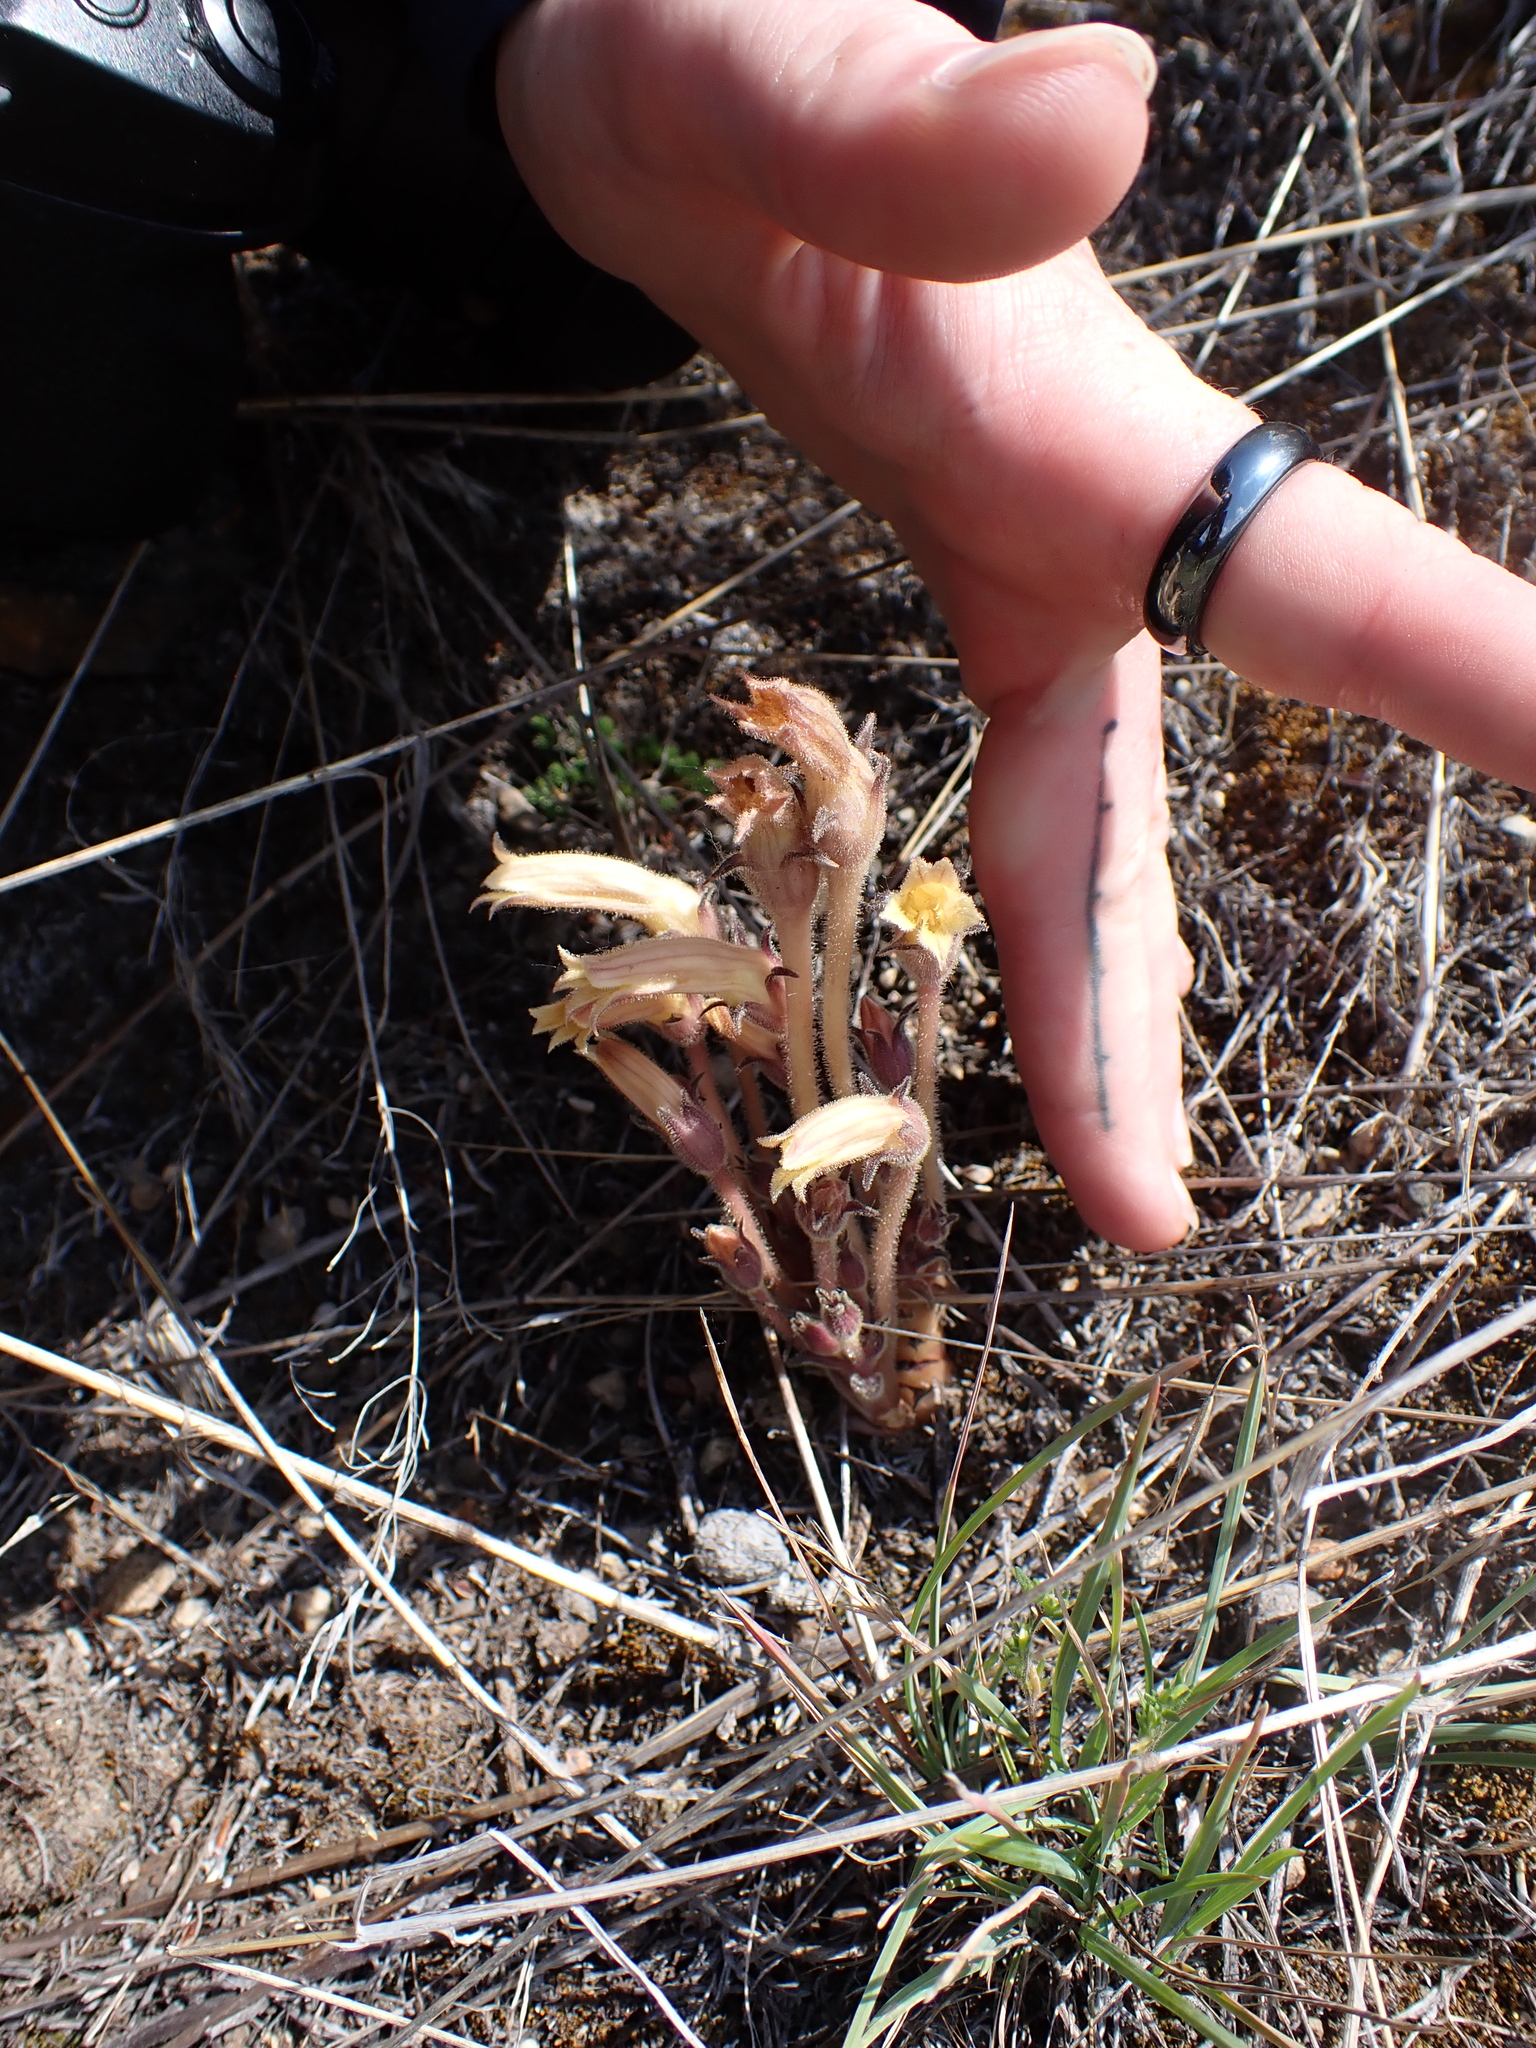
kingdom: Plantae
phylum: Tracheophyta
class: Magnoliopsida
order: Lamiales
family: Orobanchaceae
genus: Aphyllon
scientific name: Aphyllon franciscanum
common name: San francisco broomrape
